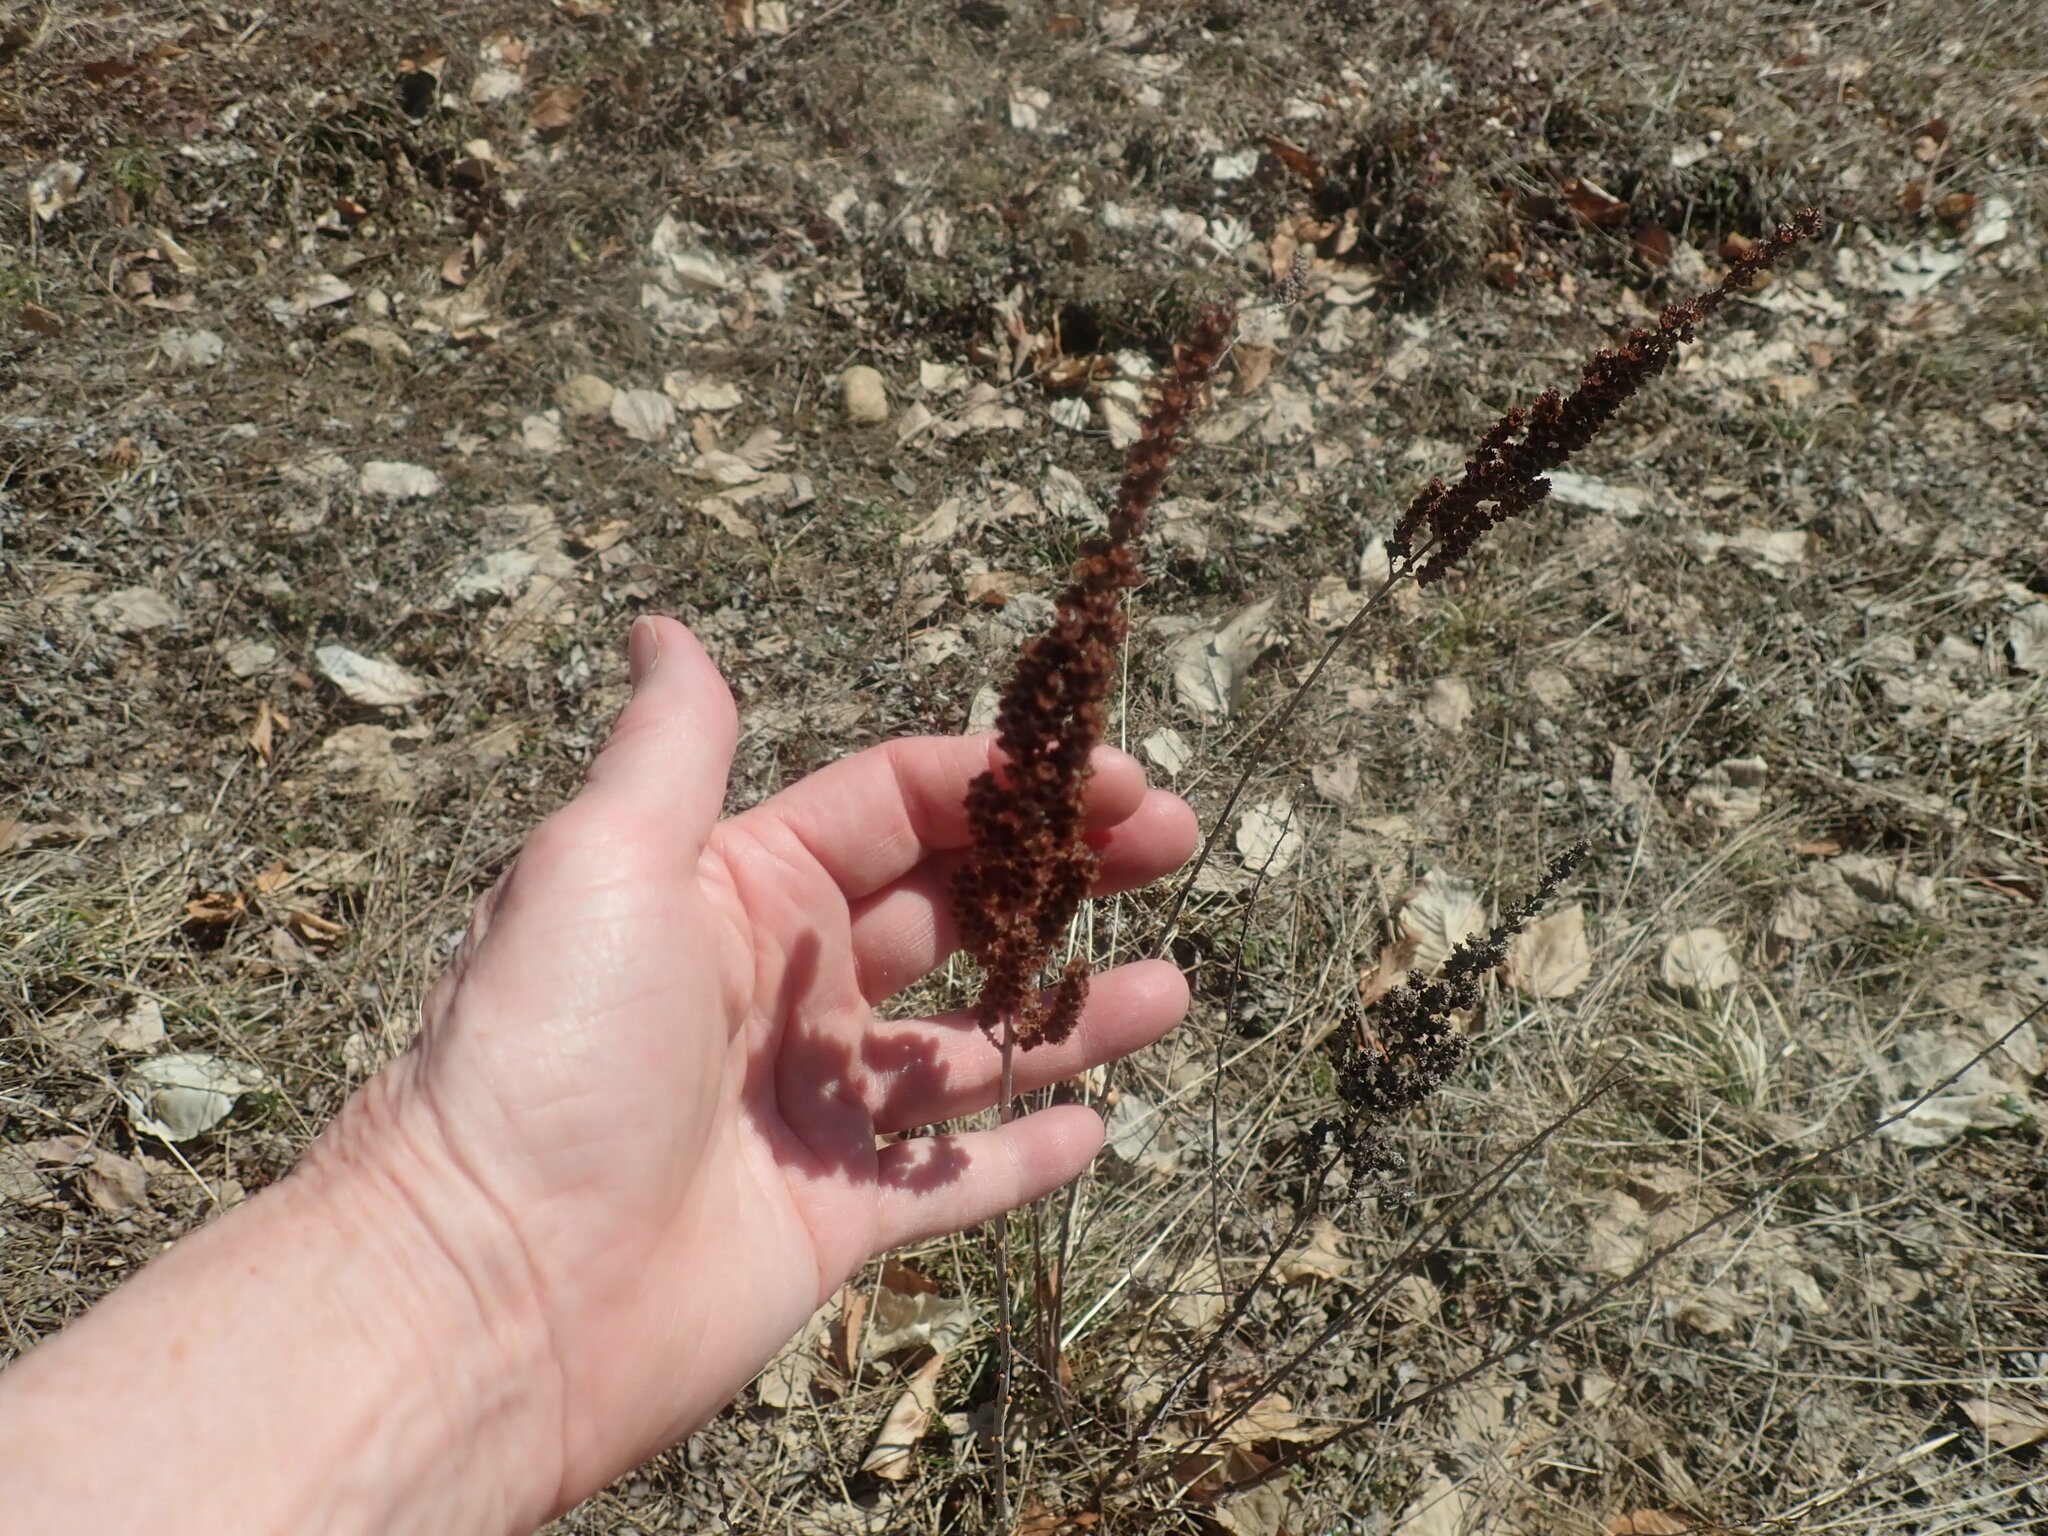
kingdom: Plantae
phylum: Tracheophyta
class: Magnoliopsida
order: Rosales
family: Rosaceae
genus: Spiraea
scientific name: Spiraea tomentosa
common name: Hardhack
